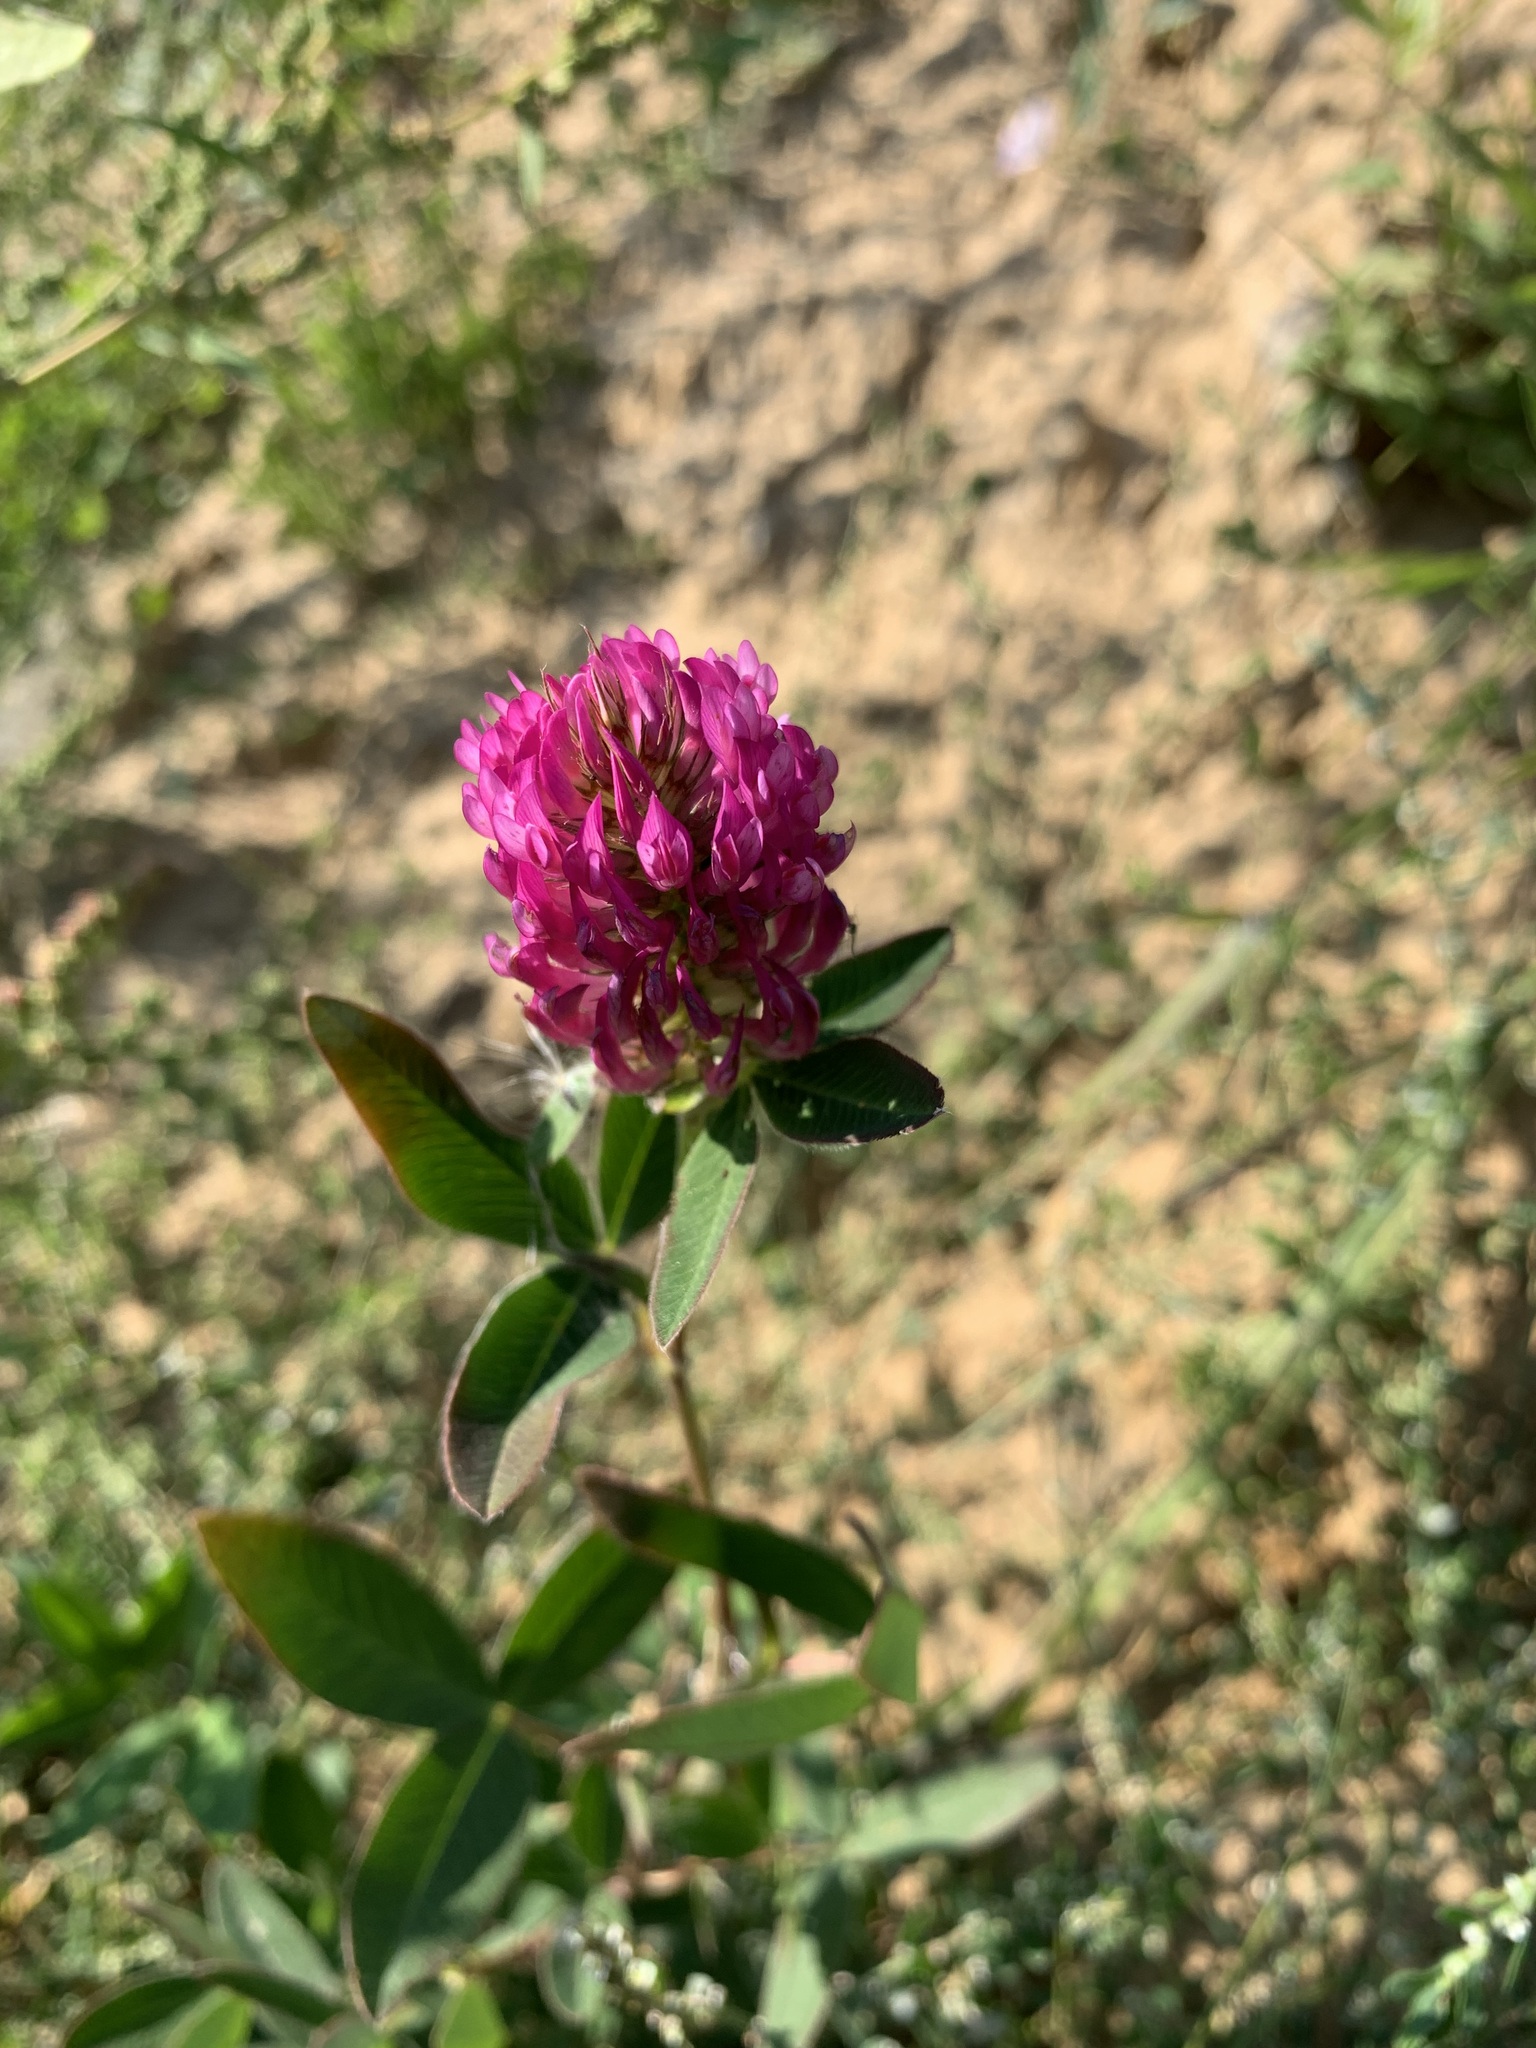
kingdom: Plantae
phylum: Tracheophyta
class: Magnoliopsida
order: Fabales
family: Fabaceae
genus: Trifolium
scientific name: Trifolium medium
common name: Zigzag clover
